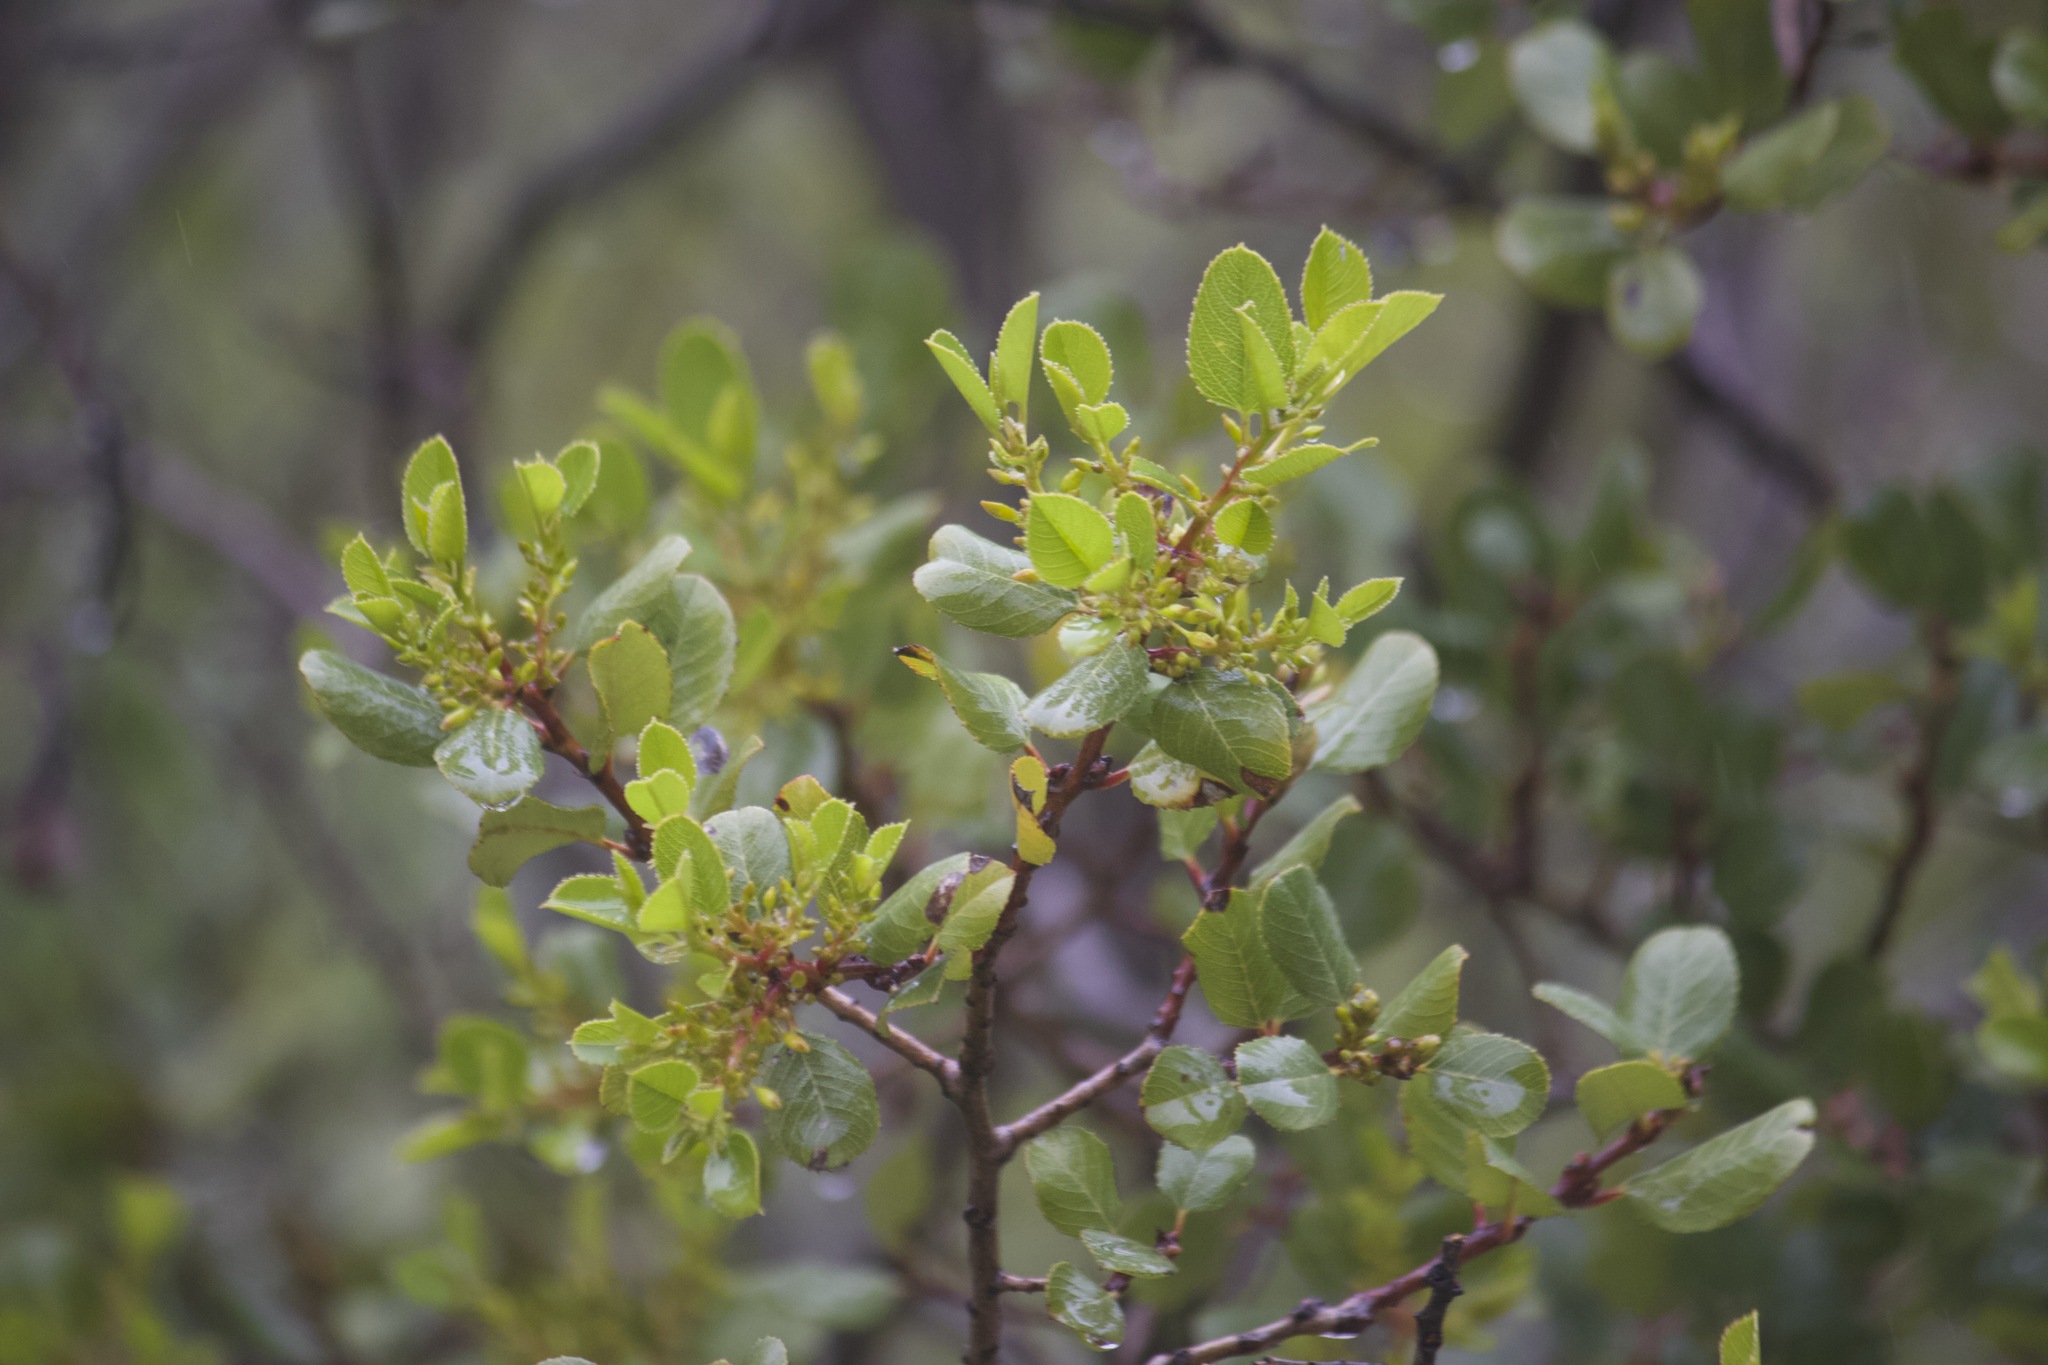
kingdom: Plantae
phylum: Tracheophyta
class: Magnoliopsida
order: Rosales
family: Rhamnaceae
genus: Endotropis
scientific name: Endotropis crocea
